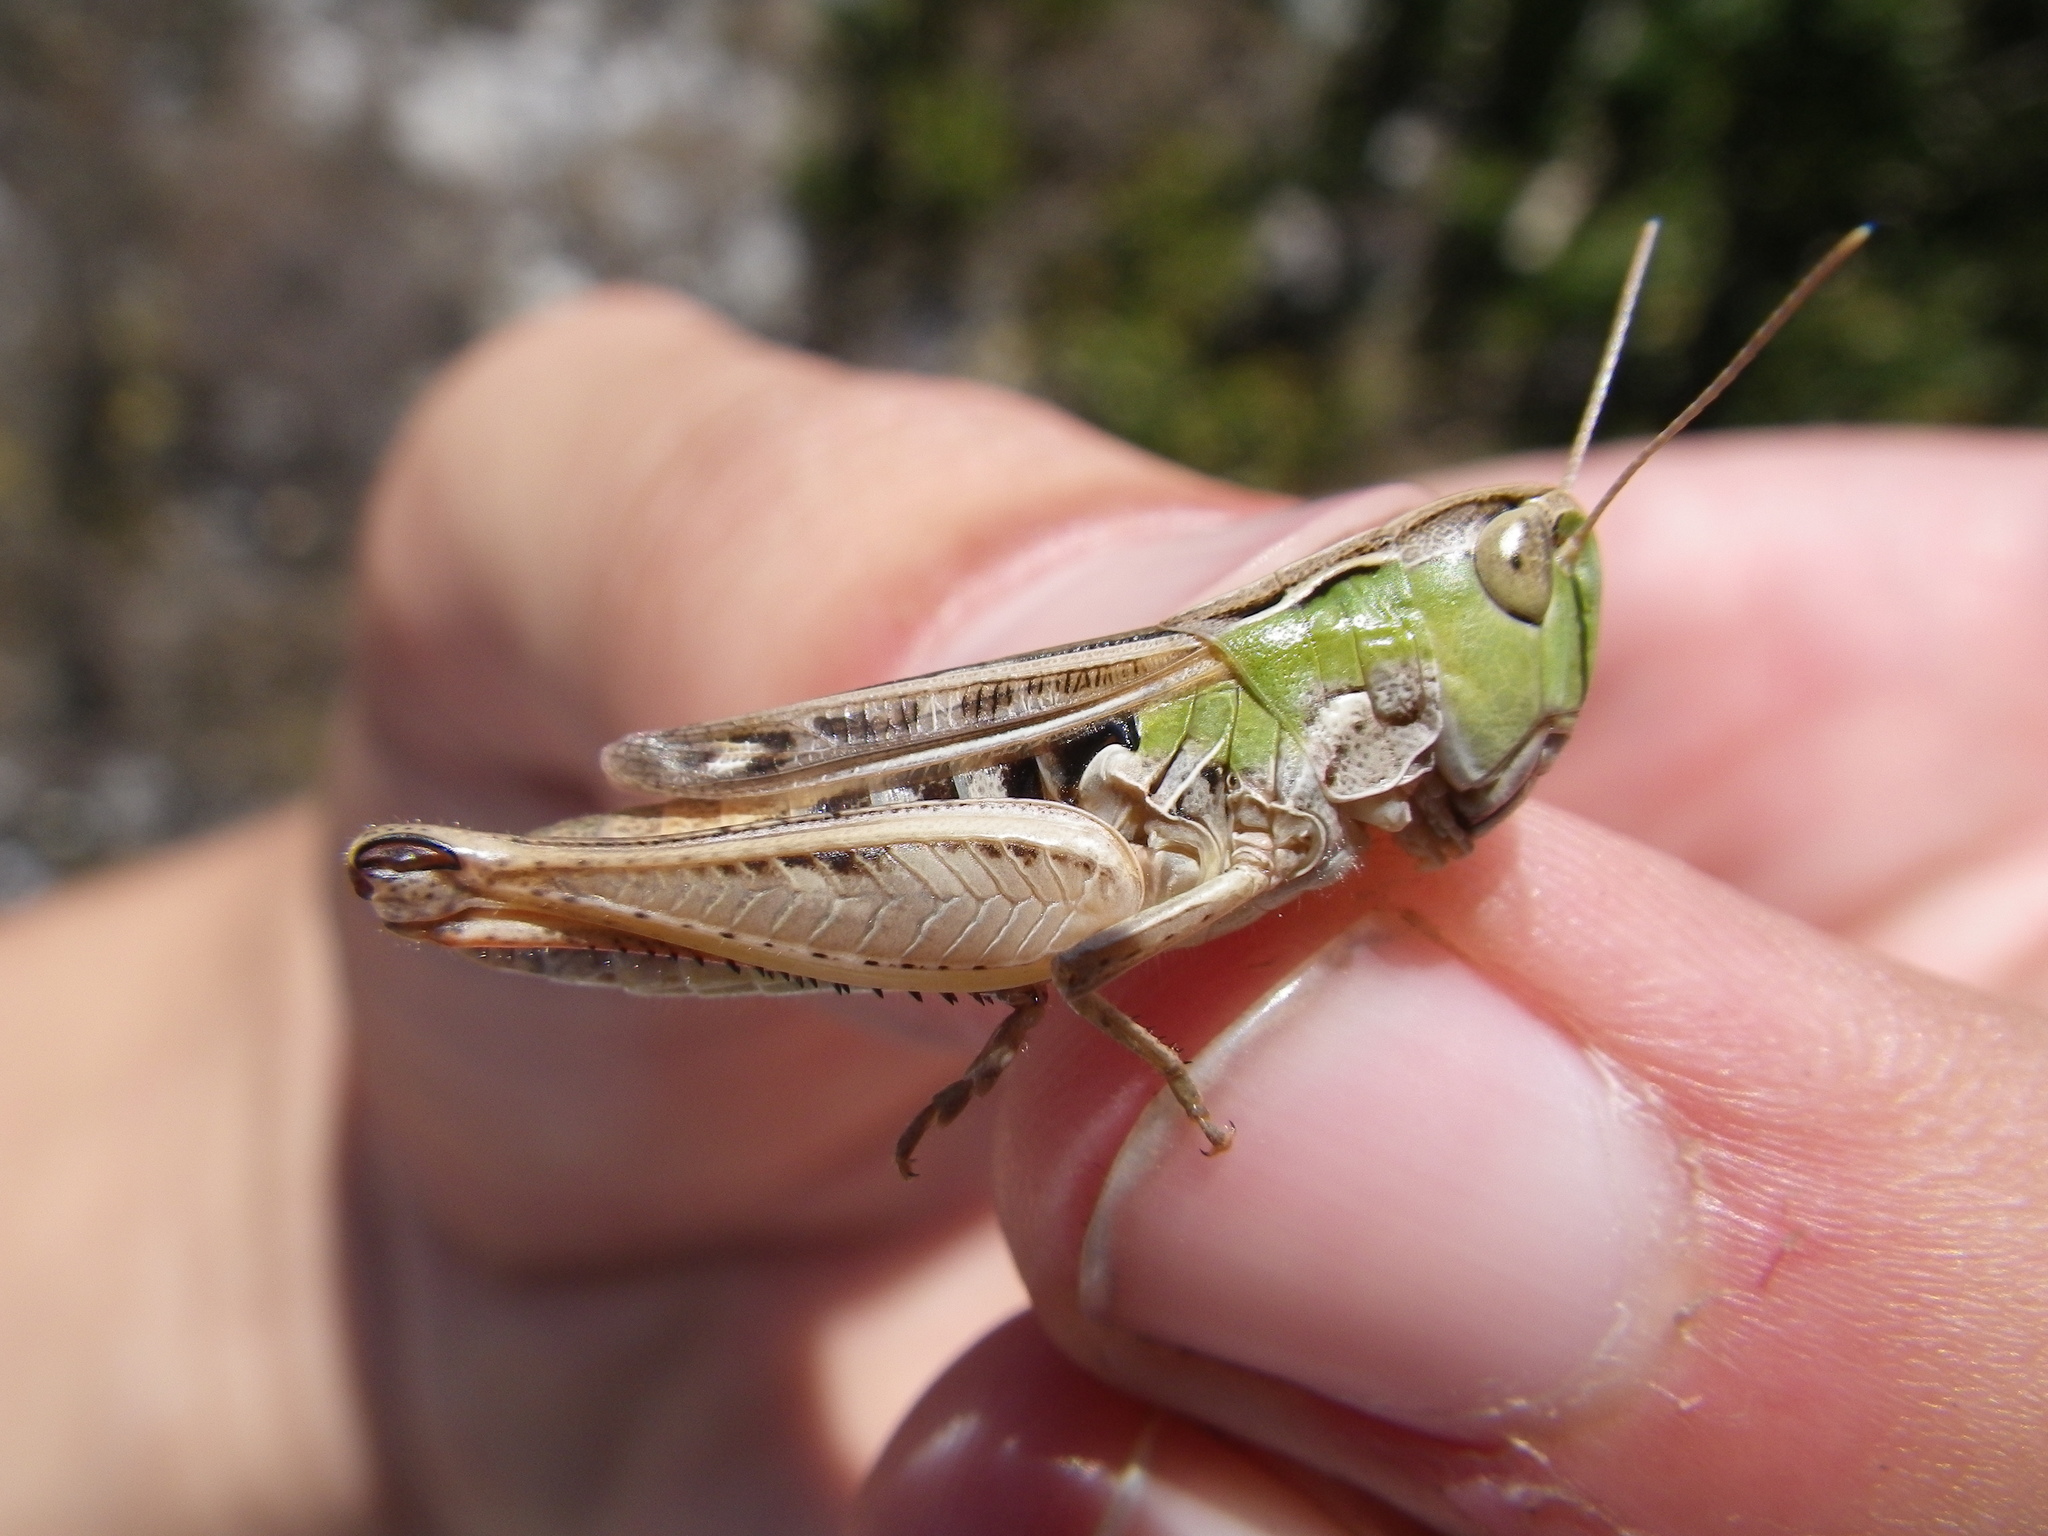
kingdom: Animalia
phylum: Arthropoda
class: Insecta
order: Orthoptera
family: Acrididae
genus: Stenobothrus
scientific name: Stenobothrus nigromaculatus
